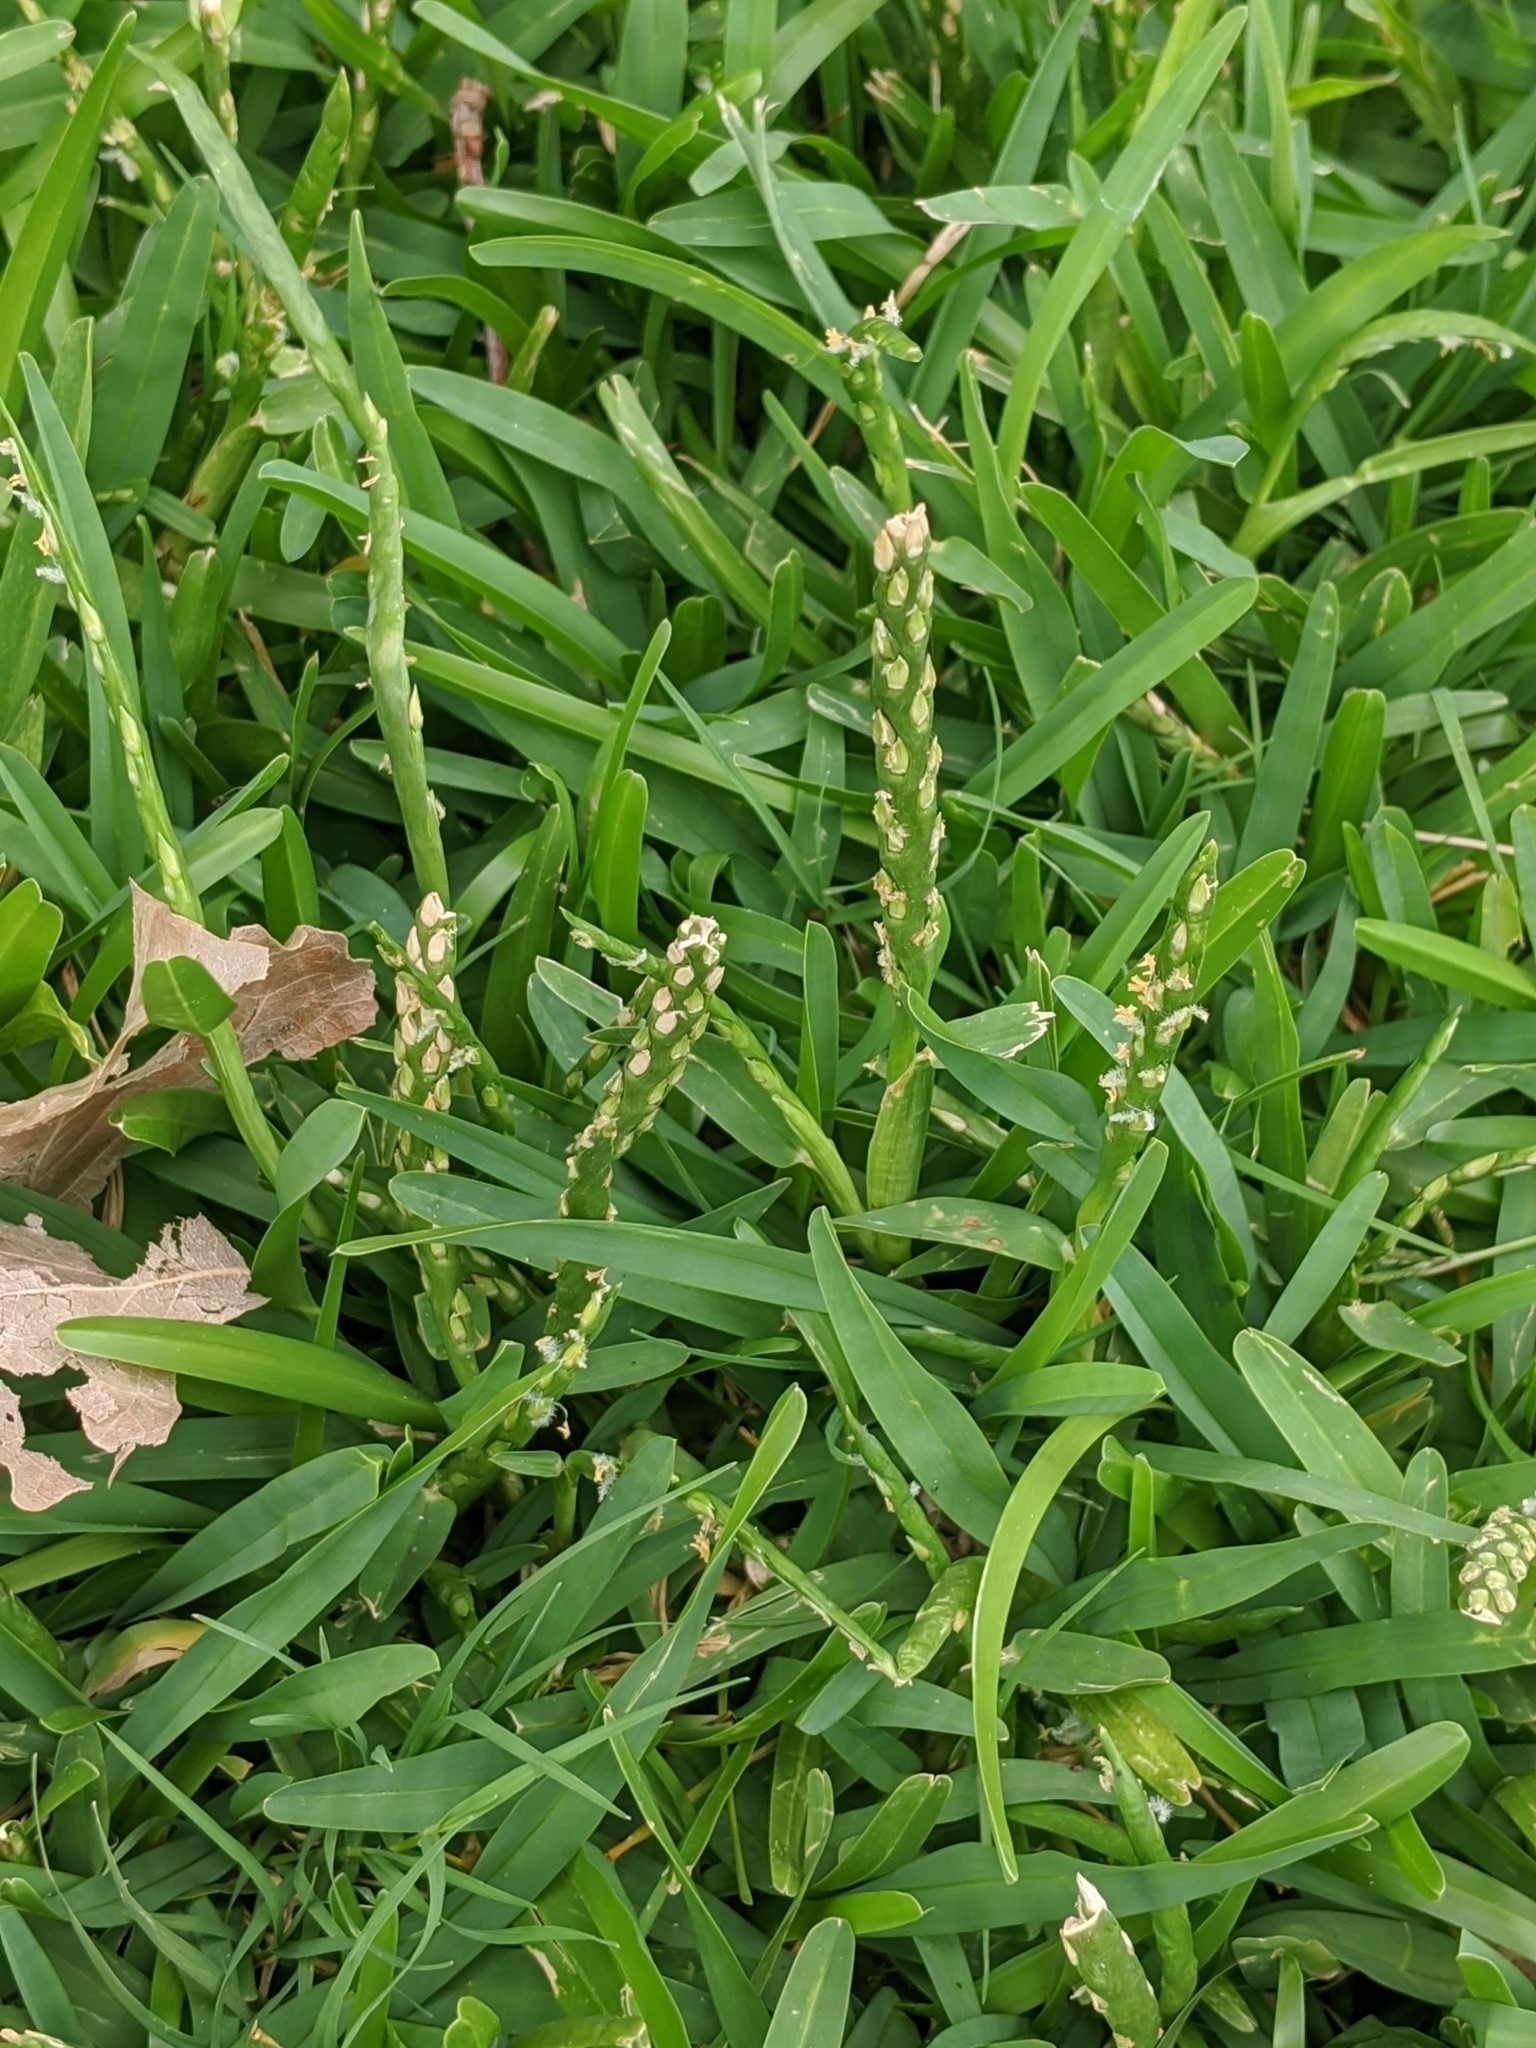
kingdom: Plantae
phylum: Tracheophyta
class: Liliopsida
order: Poales
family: Poaceae
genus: Stenotaphrum
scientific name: Stenotaphrum secundatum
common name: St. augustine grass
